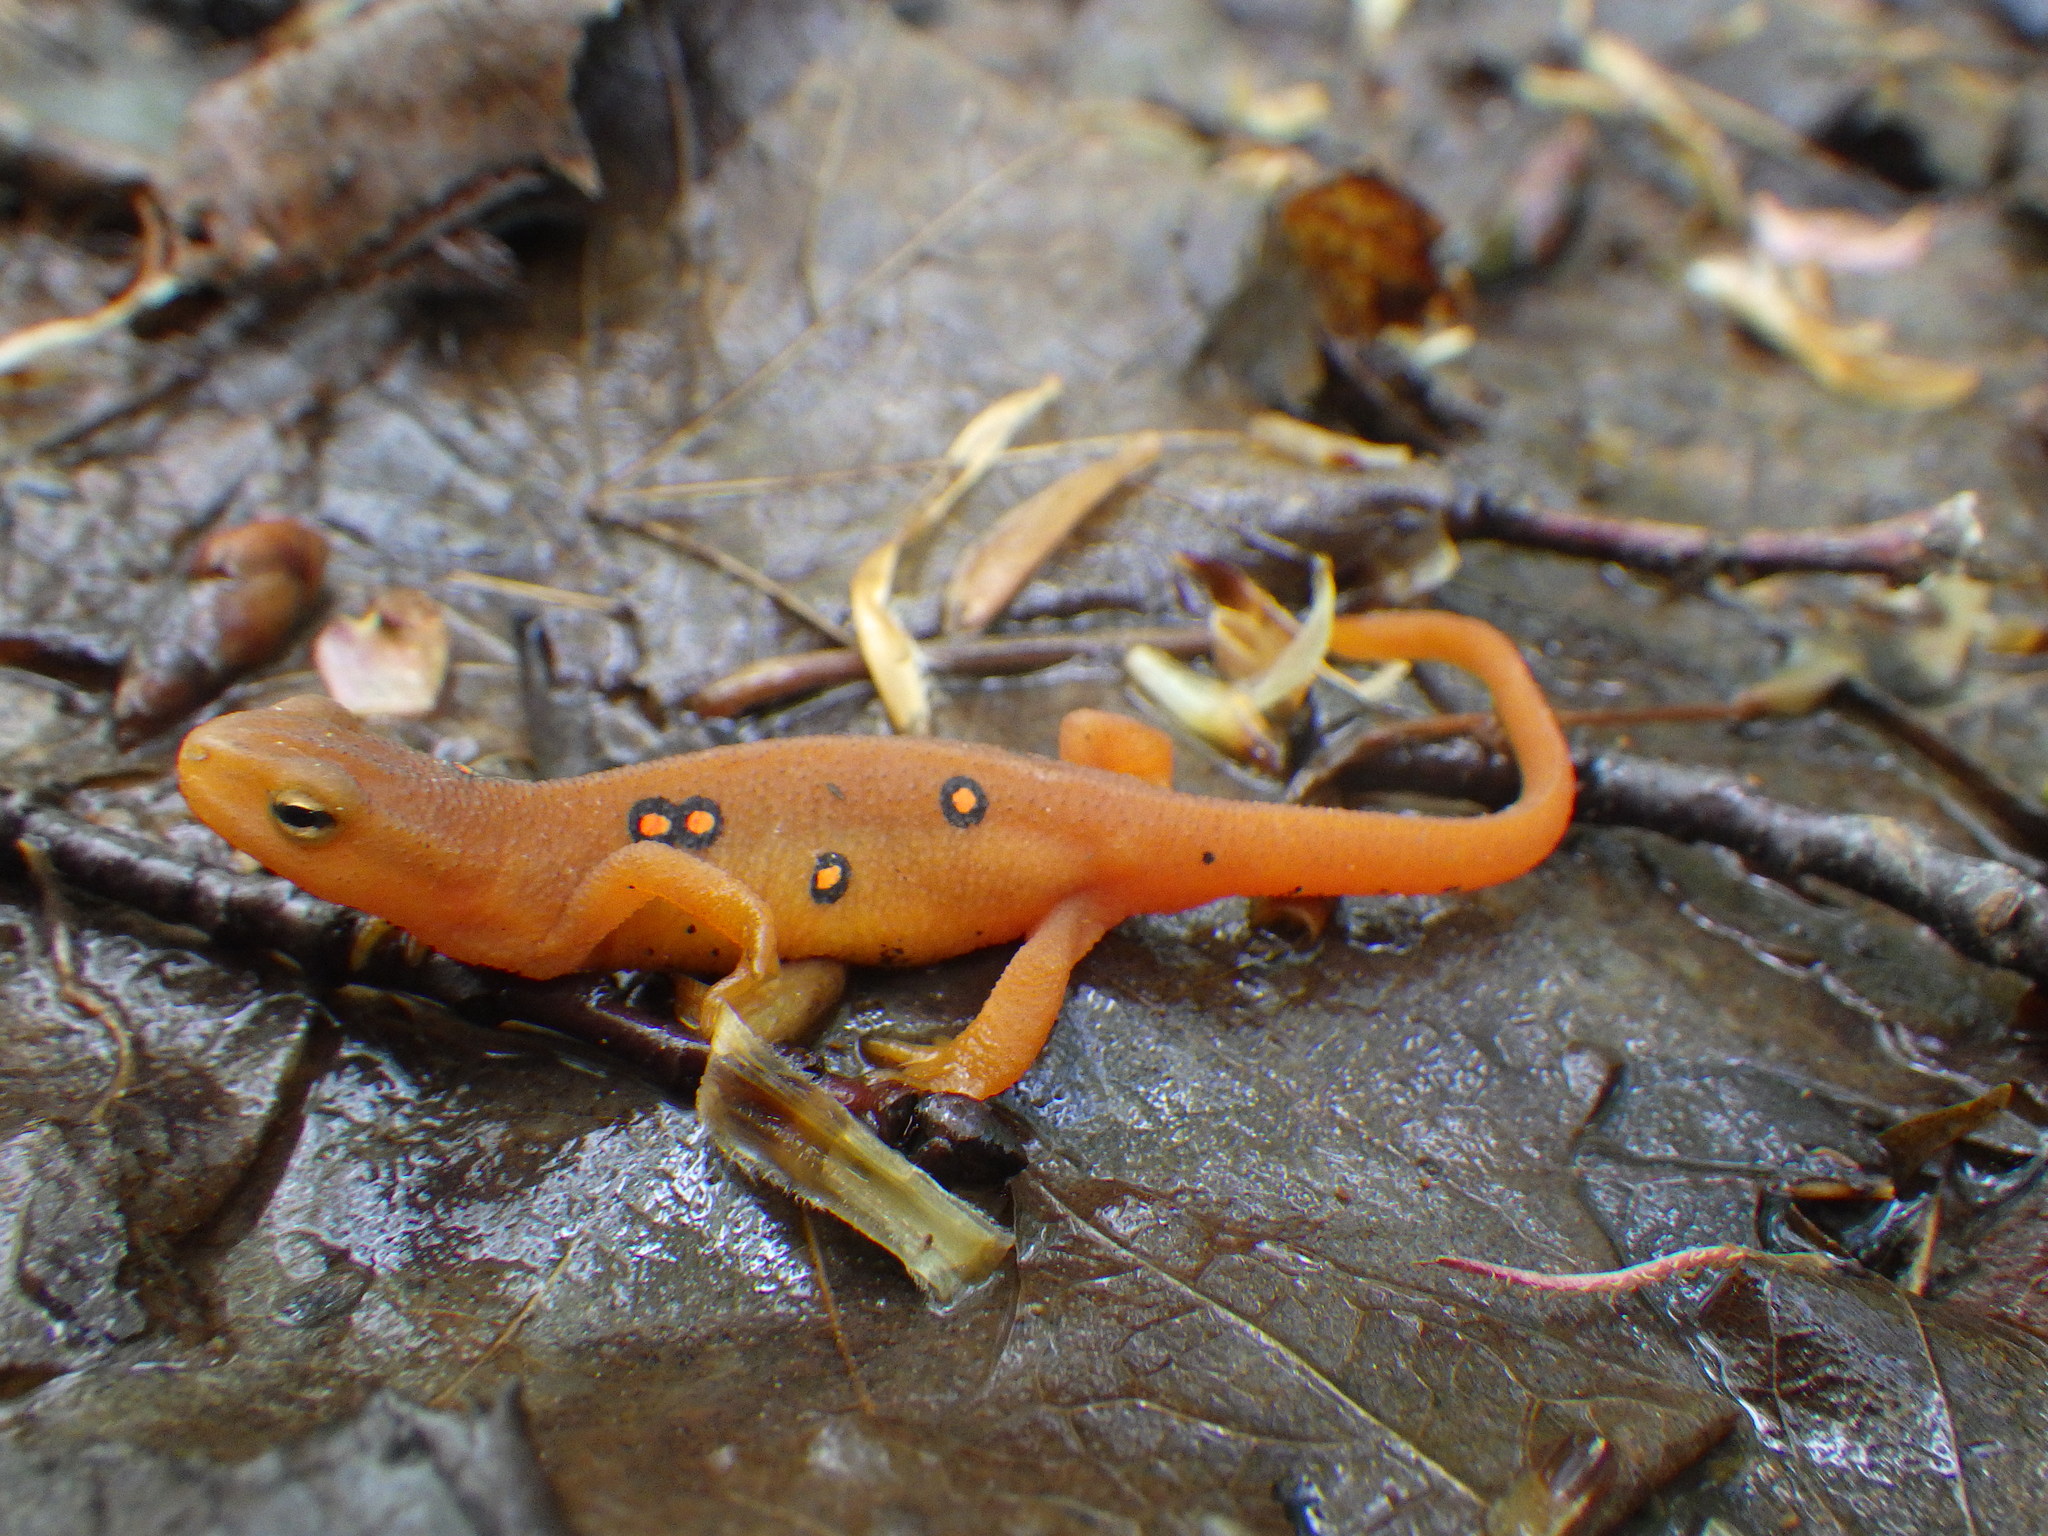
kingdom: Animalia
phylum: Chordata
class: Amphibia
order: Caudata
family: Salamandridae
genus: Notophthalmus
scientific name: Notophthalmus viridescens
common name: Eastern newt
